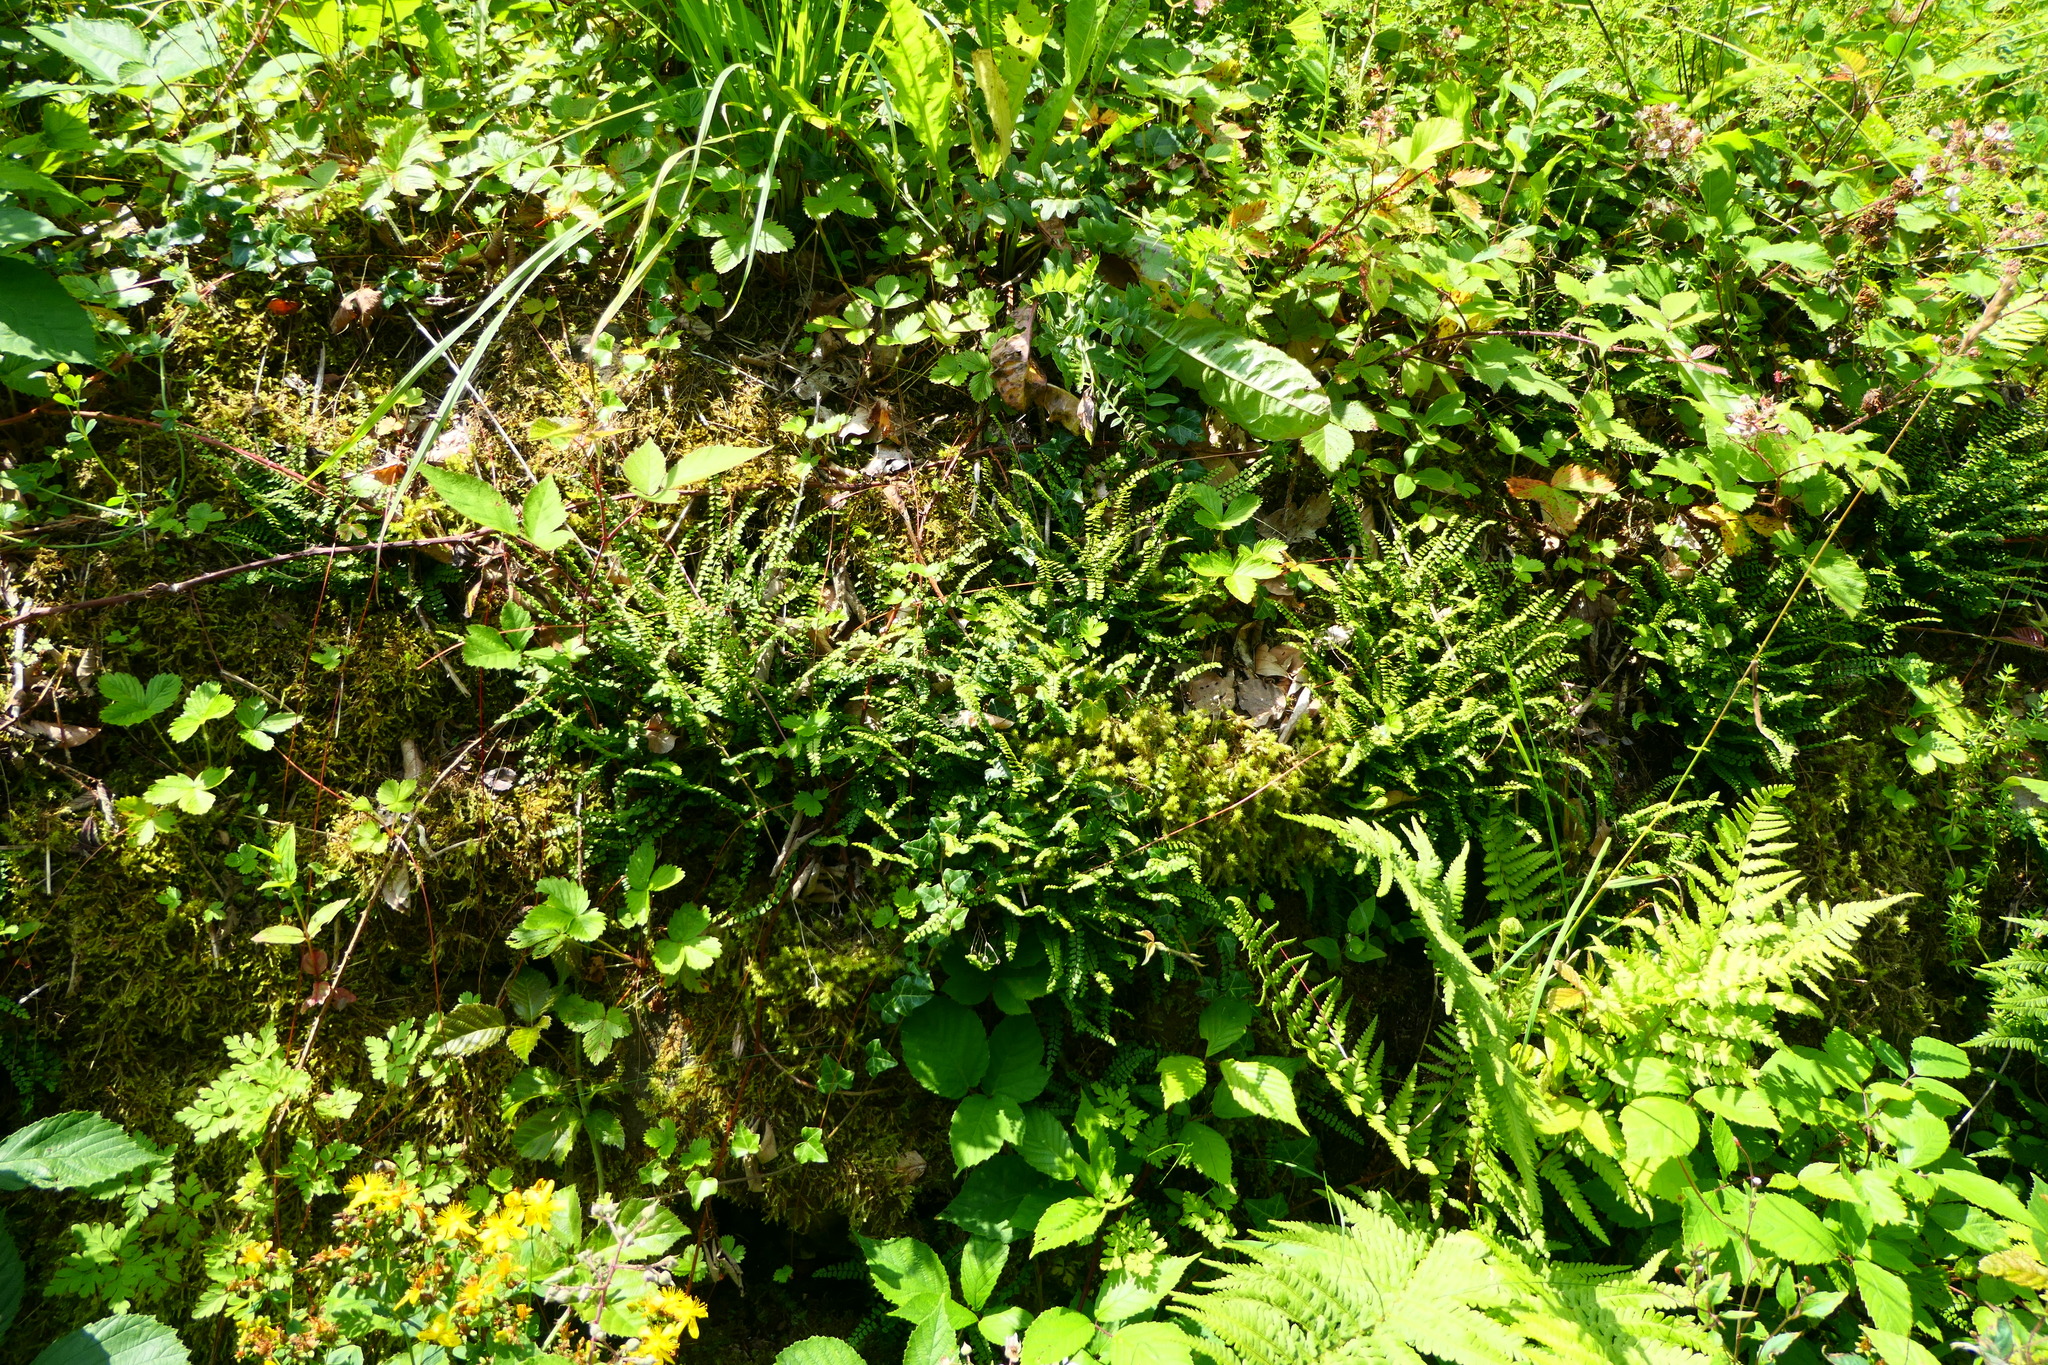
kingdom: Plantae
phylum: Tracheophyta
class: Polypodiopsida
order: Polypodiales
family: Aspleniaceae
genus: Asplenium
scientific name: Asplenium trichomanes
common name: Maidenhair spleenwort
